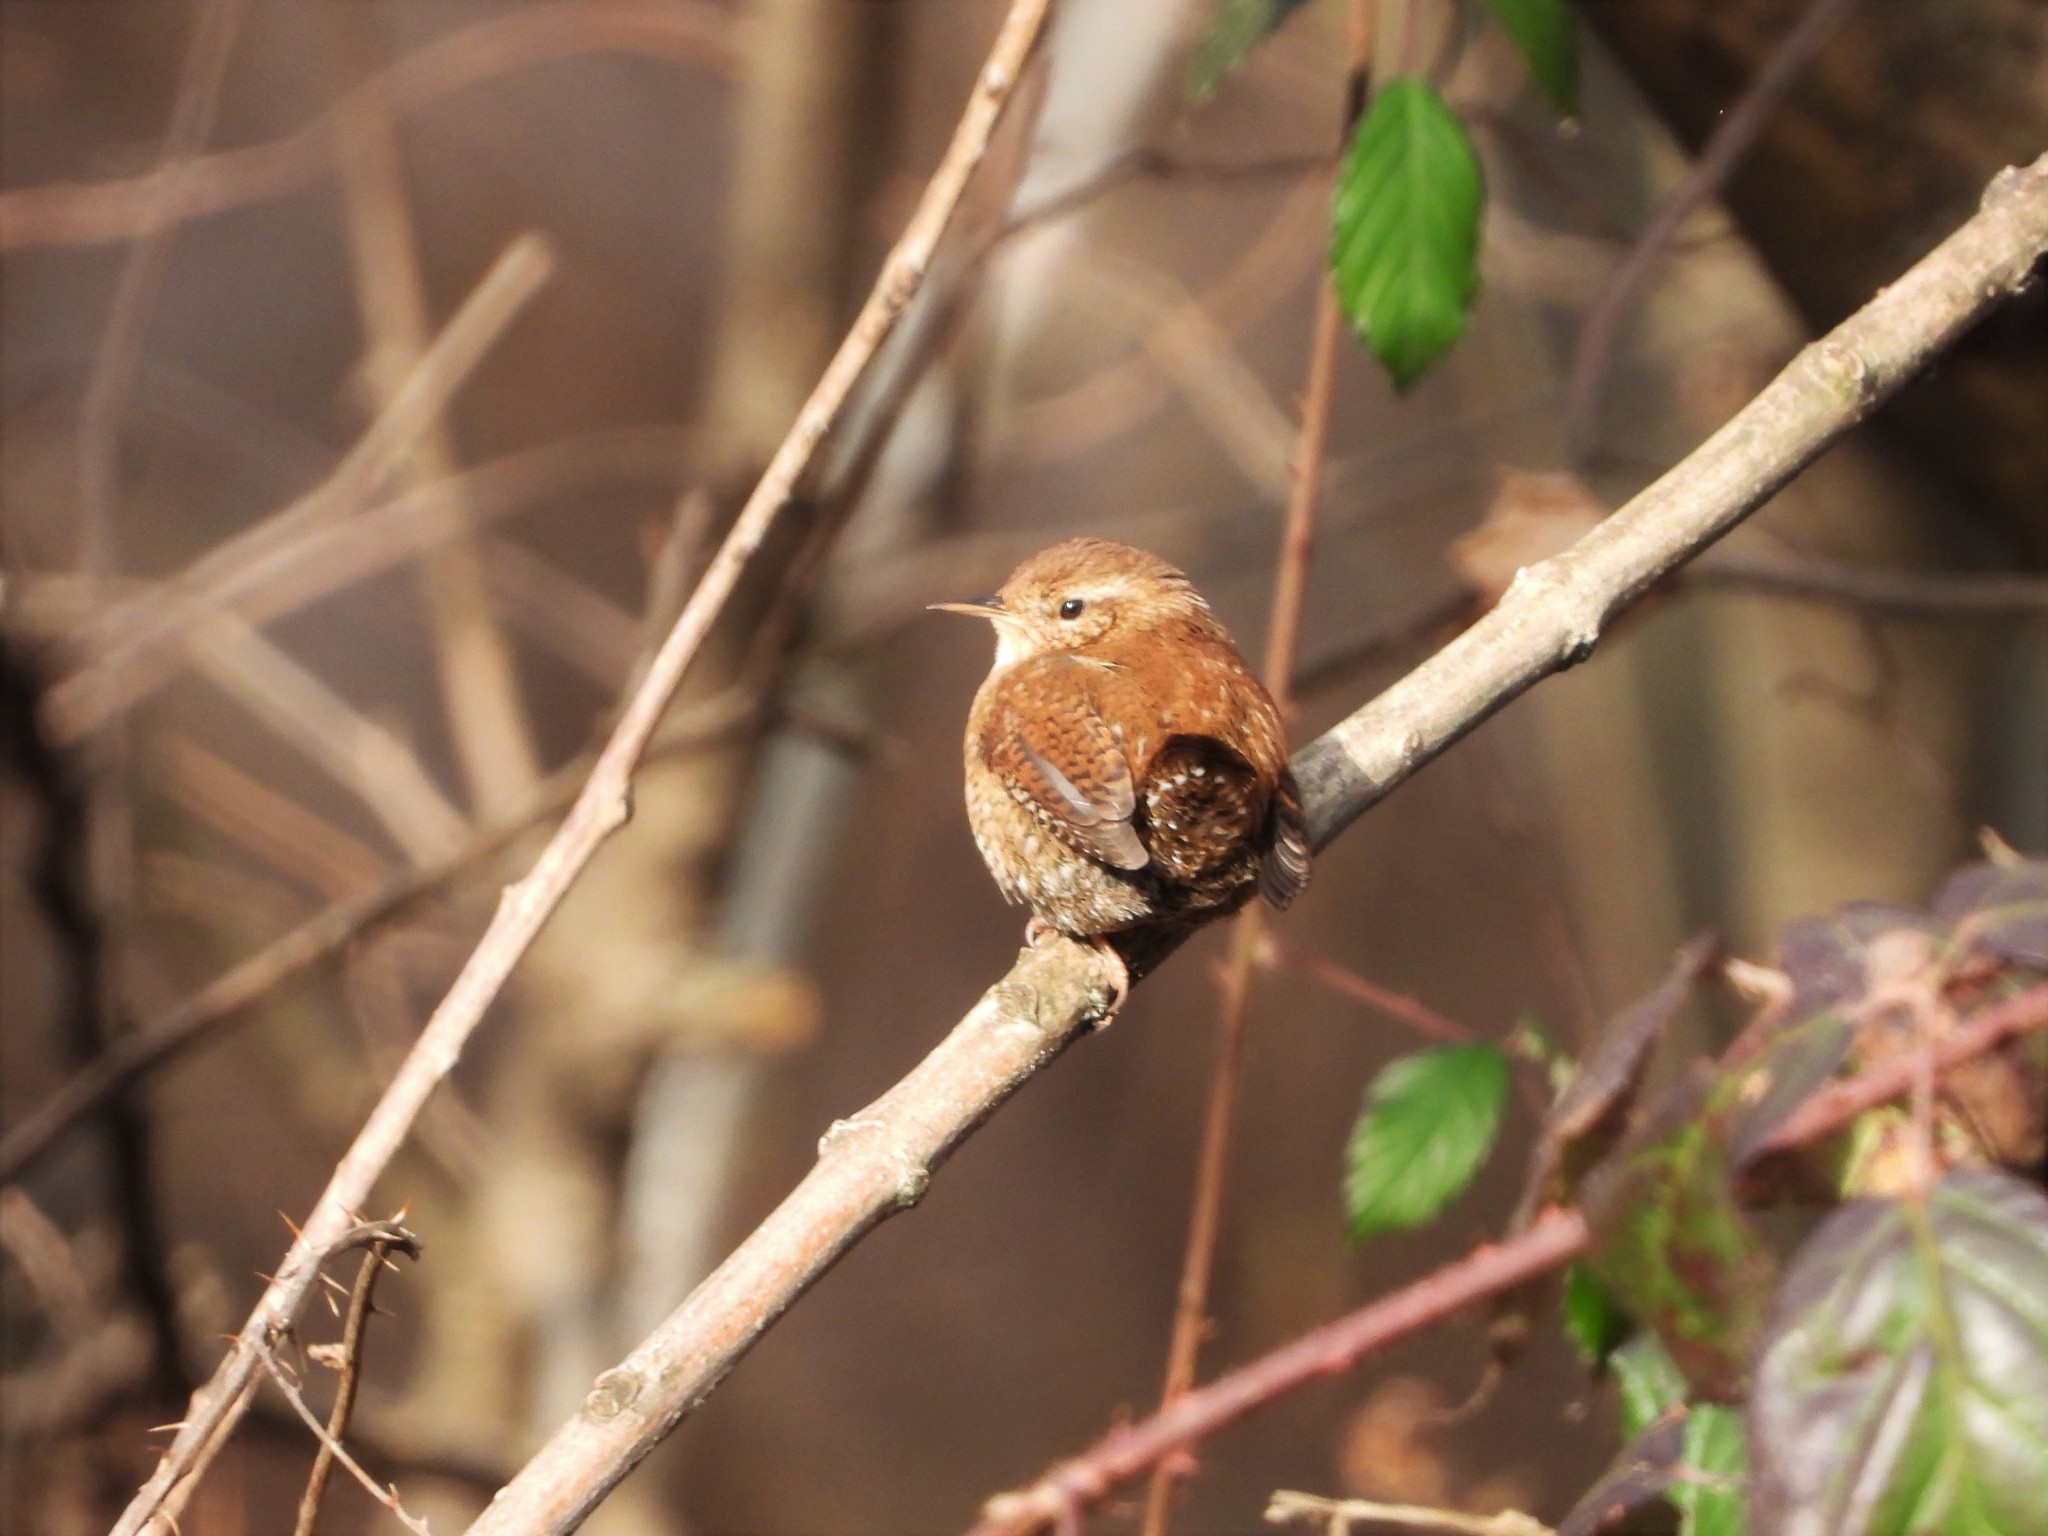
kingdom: Animalia
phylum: Chordata
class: Aves
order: Passeriformes
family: Troglodytidae
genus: Troglodytes
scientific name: Troglodytes troglodytes
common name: Eurasian wren
